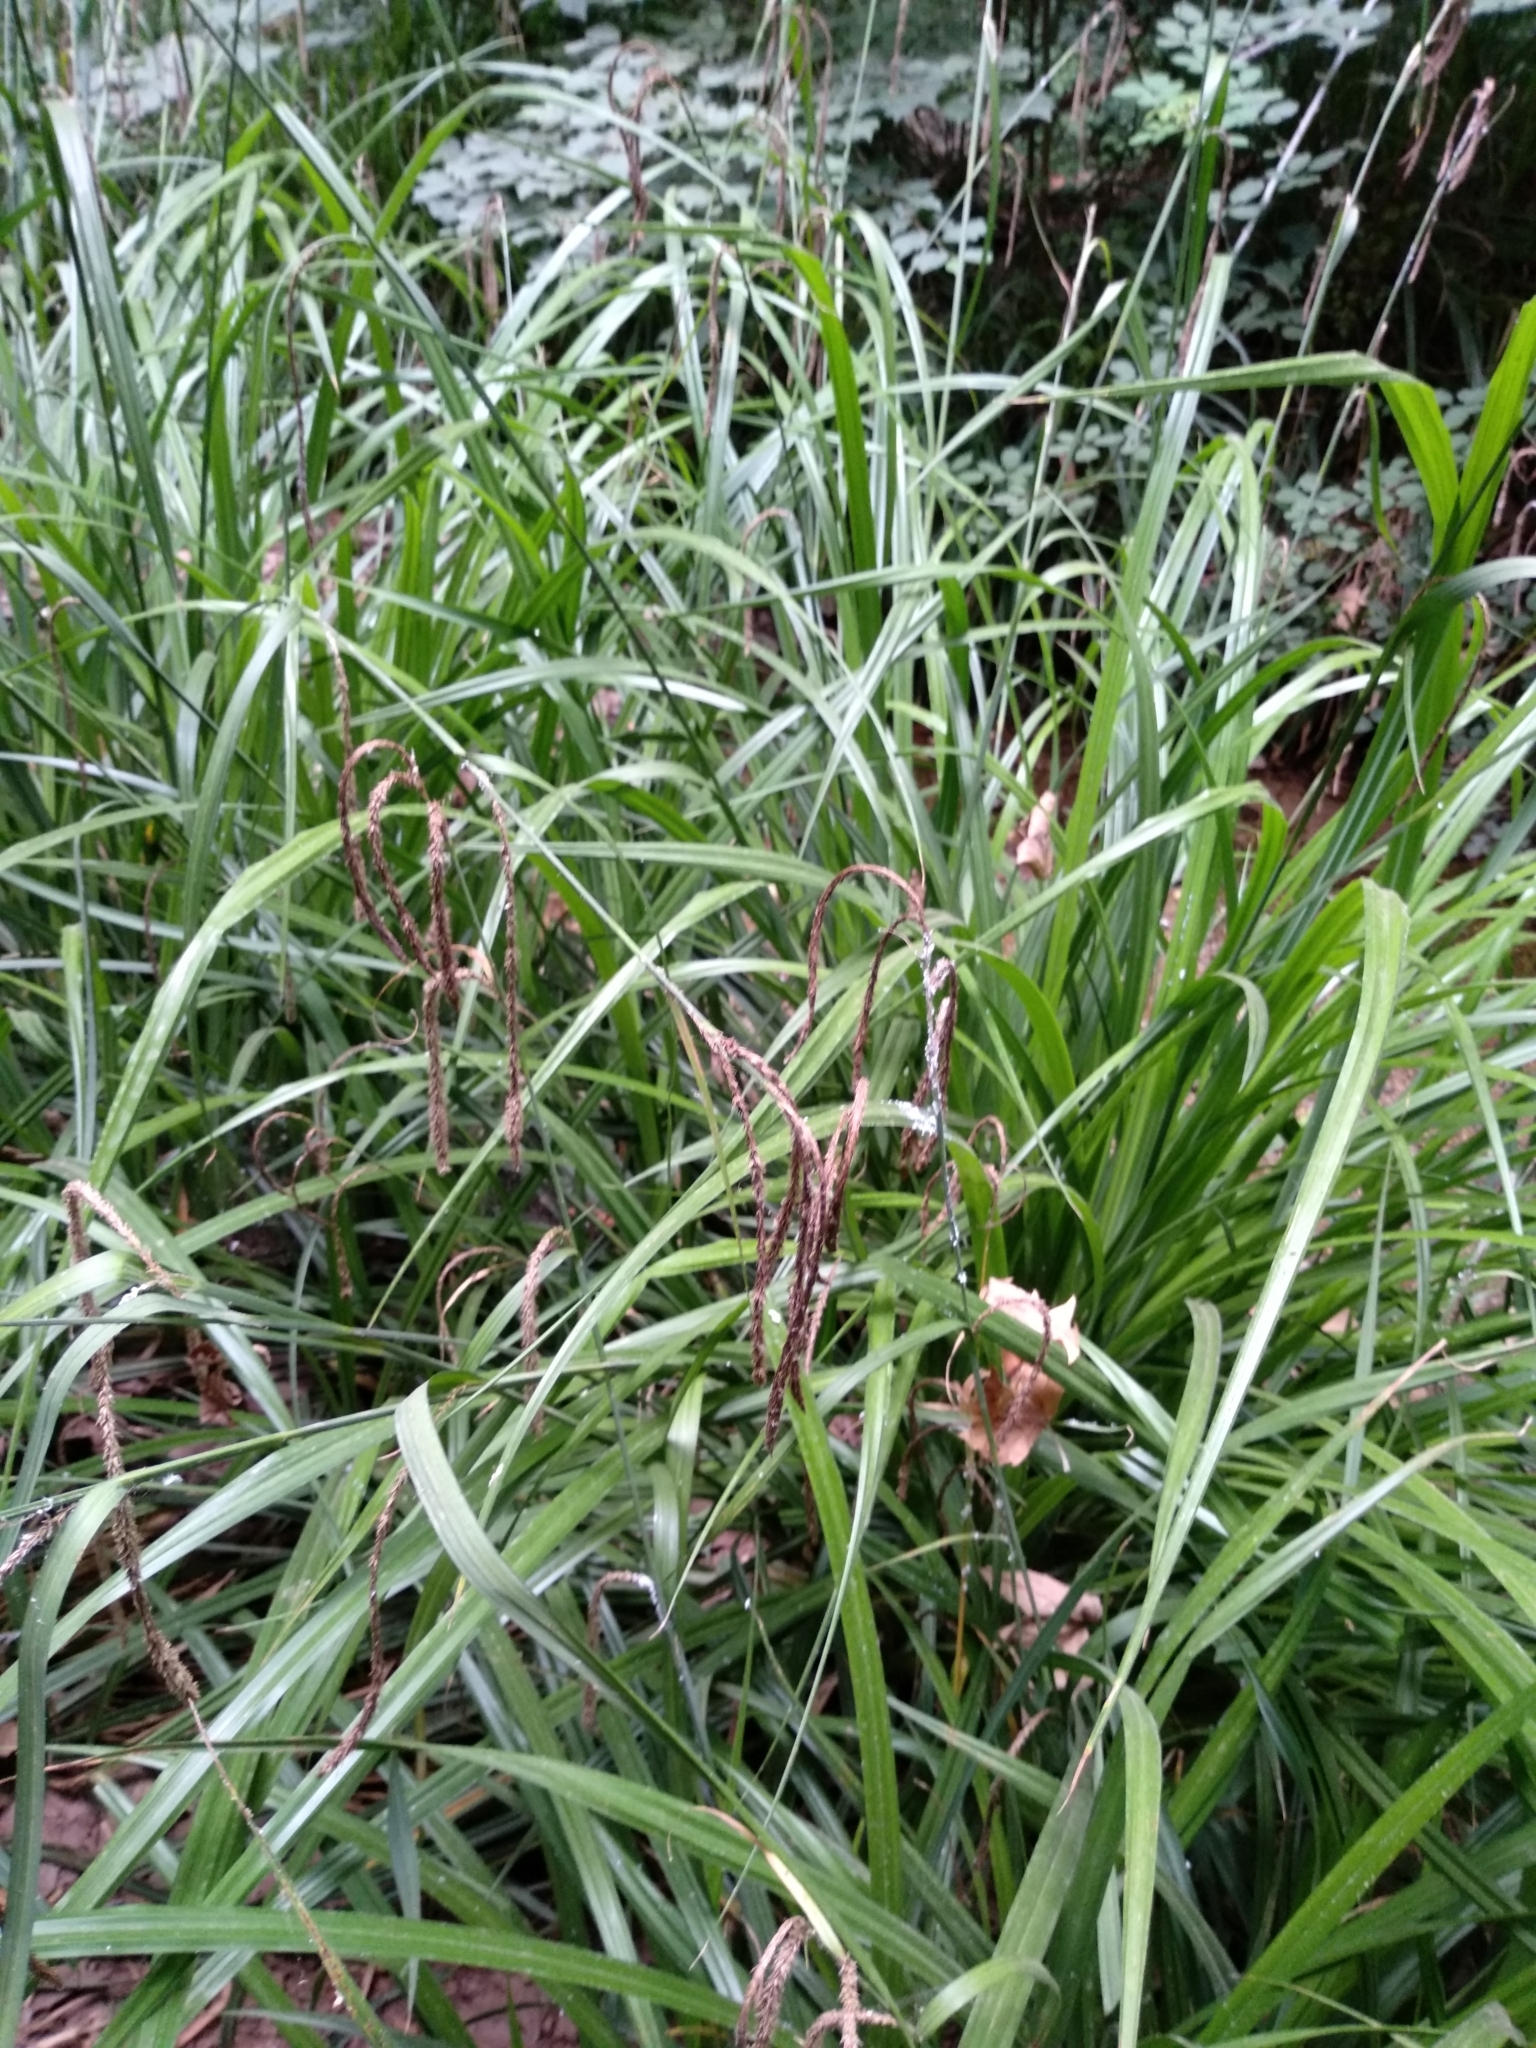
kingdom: Plantae
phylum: Tracheophyta
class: Liliopsida
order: Poales
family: Cyperaceae
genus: Carex
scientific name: Carex pendula
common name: Pendulous sedge
